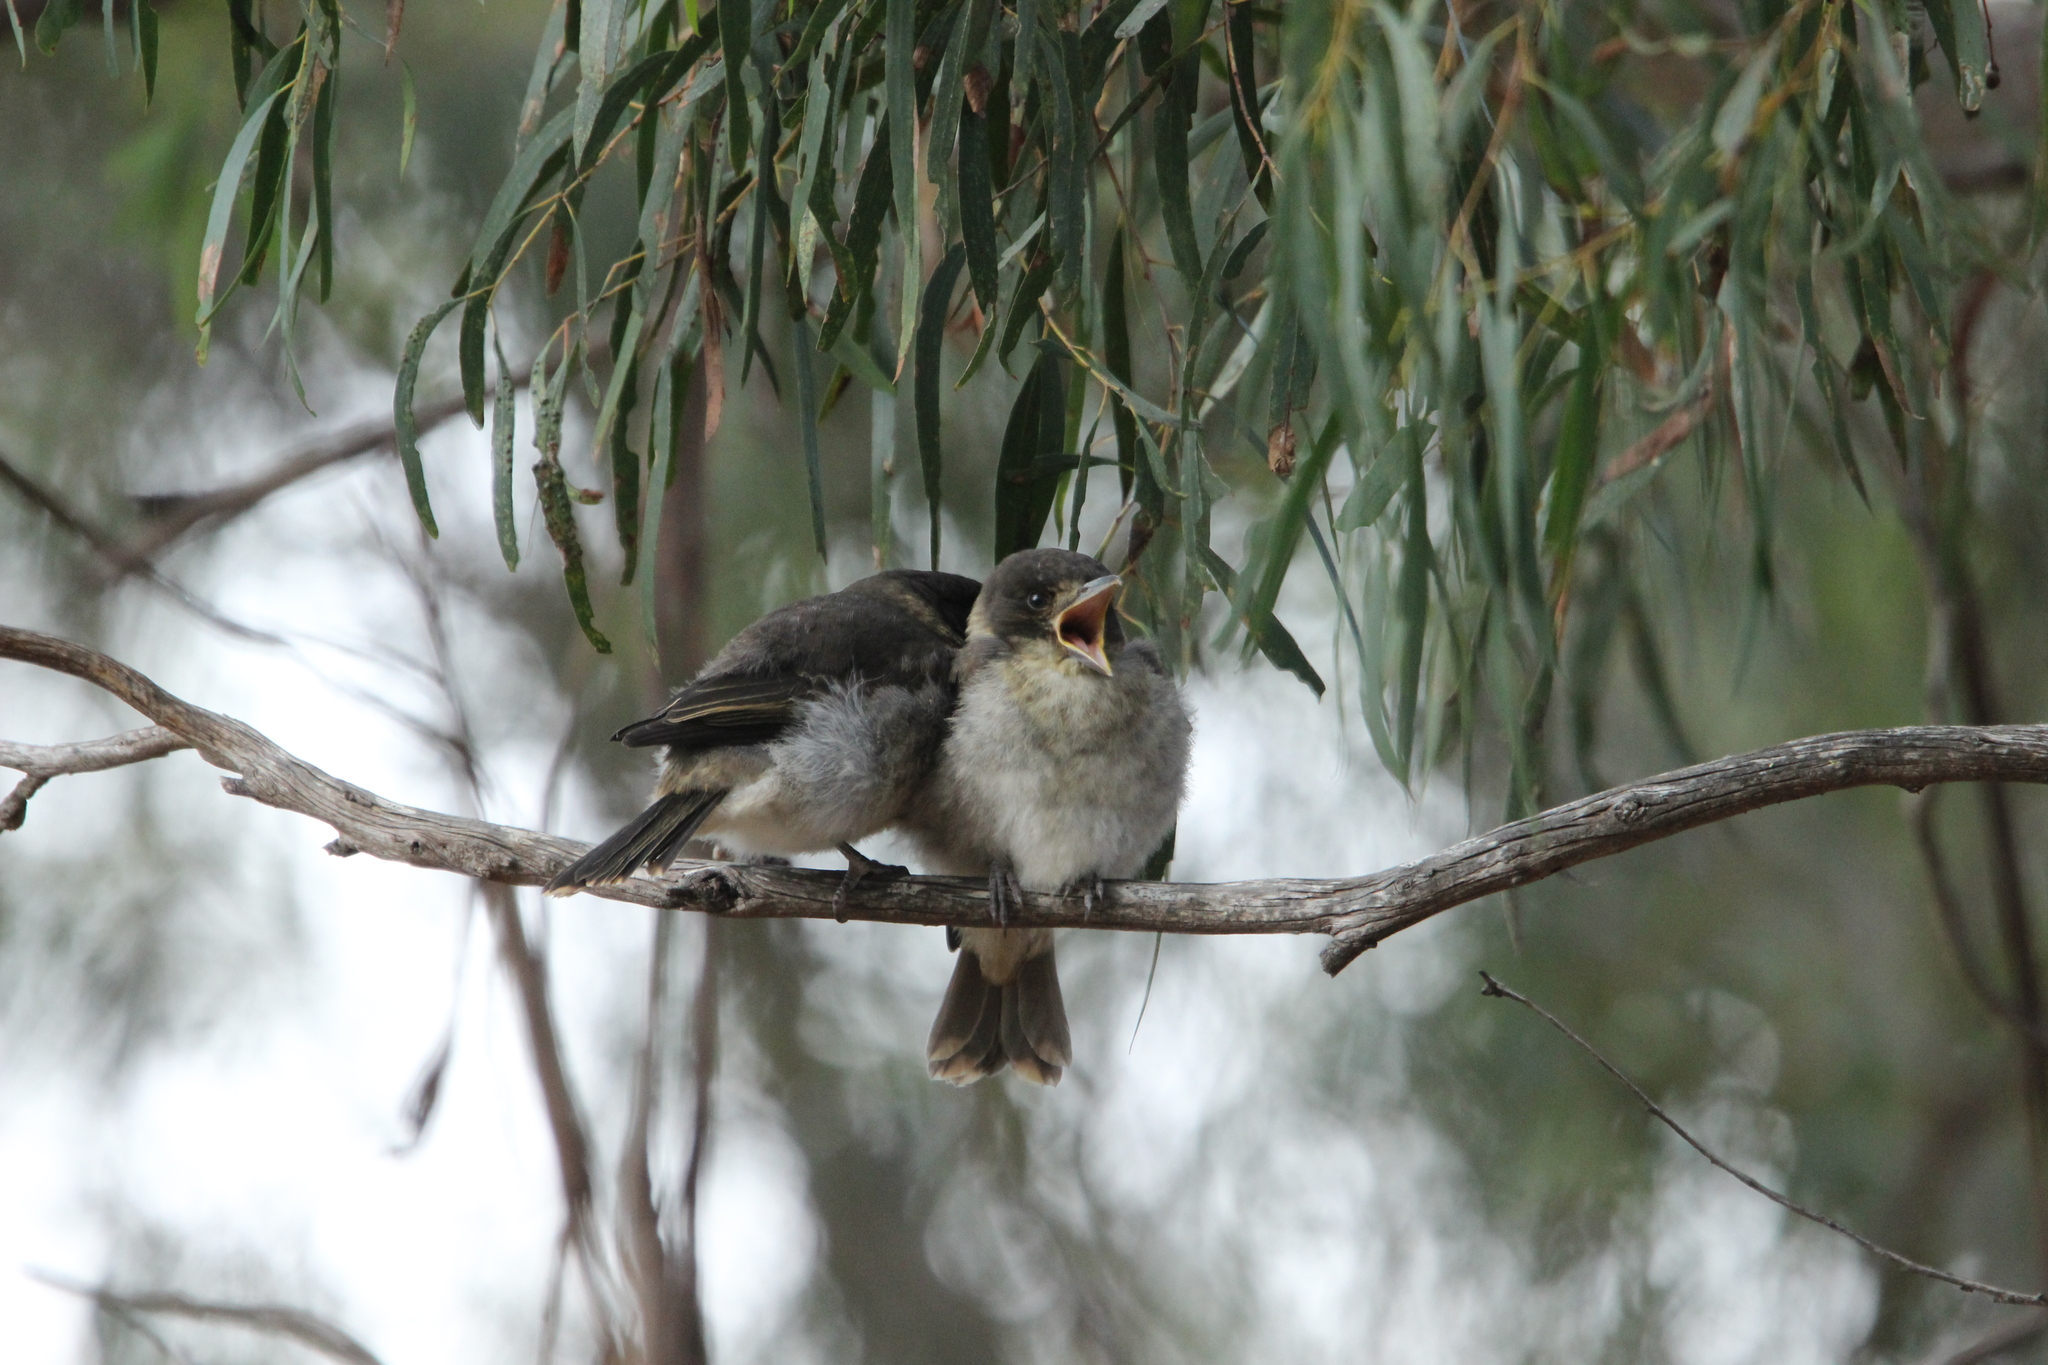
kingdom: Animalia
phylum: Chordata
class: Aves
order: Passeriformes
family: Cracticidae
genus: Cracticus
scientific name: Cracticus torquatus
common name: Grey butcherbird
